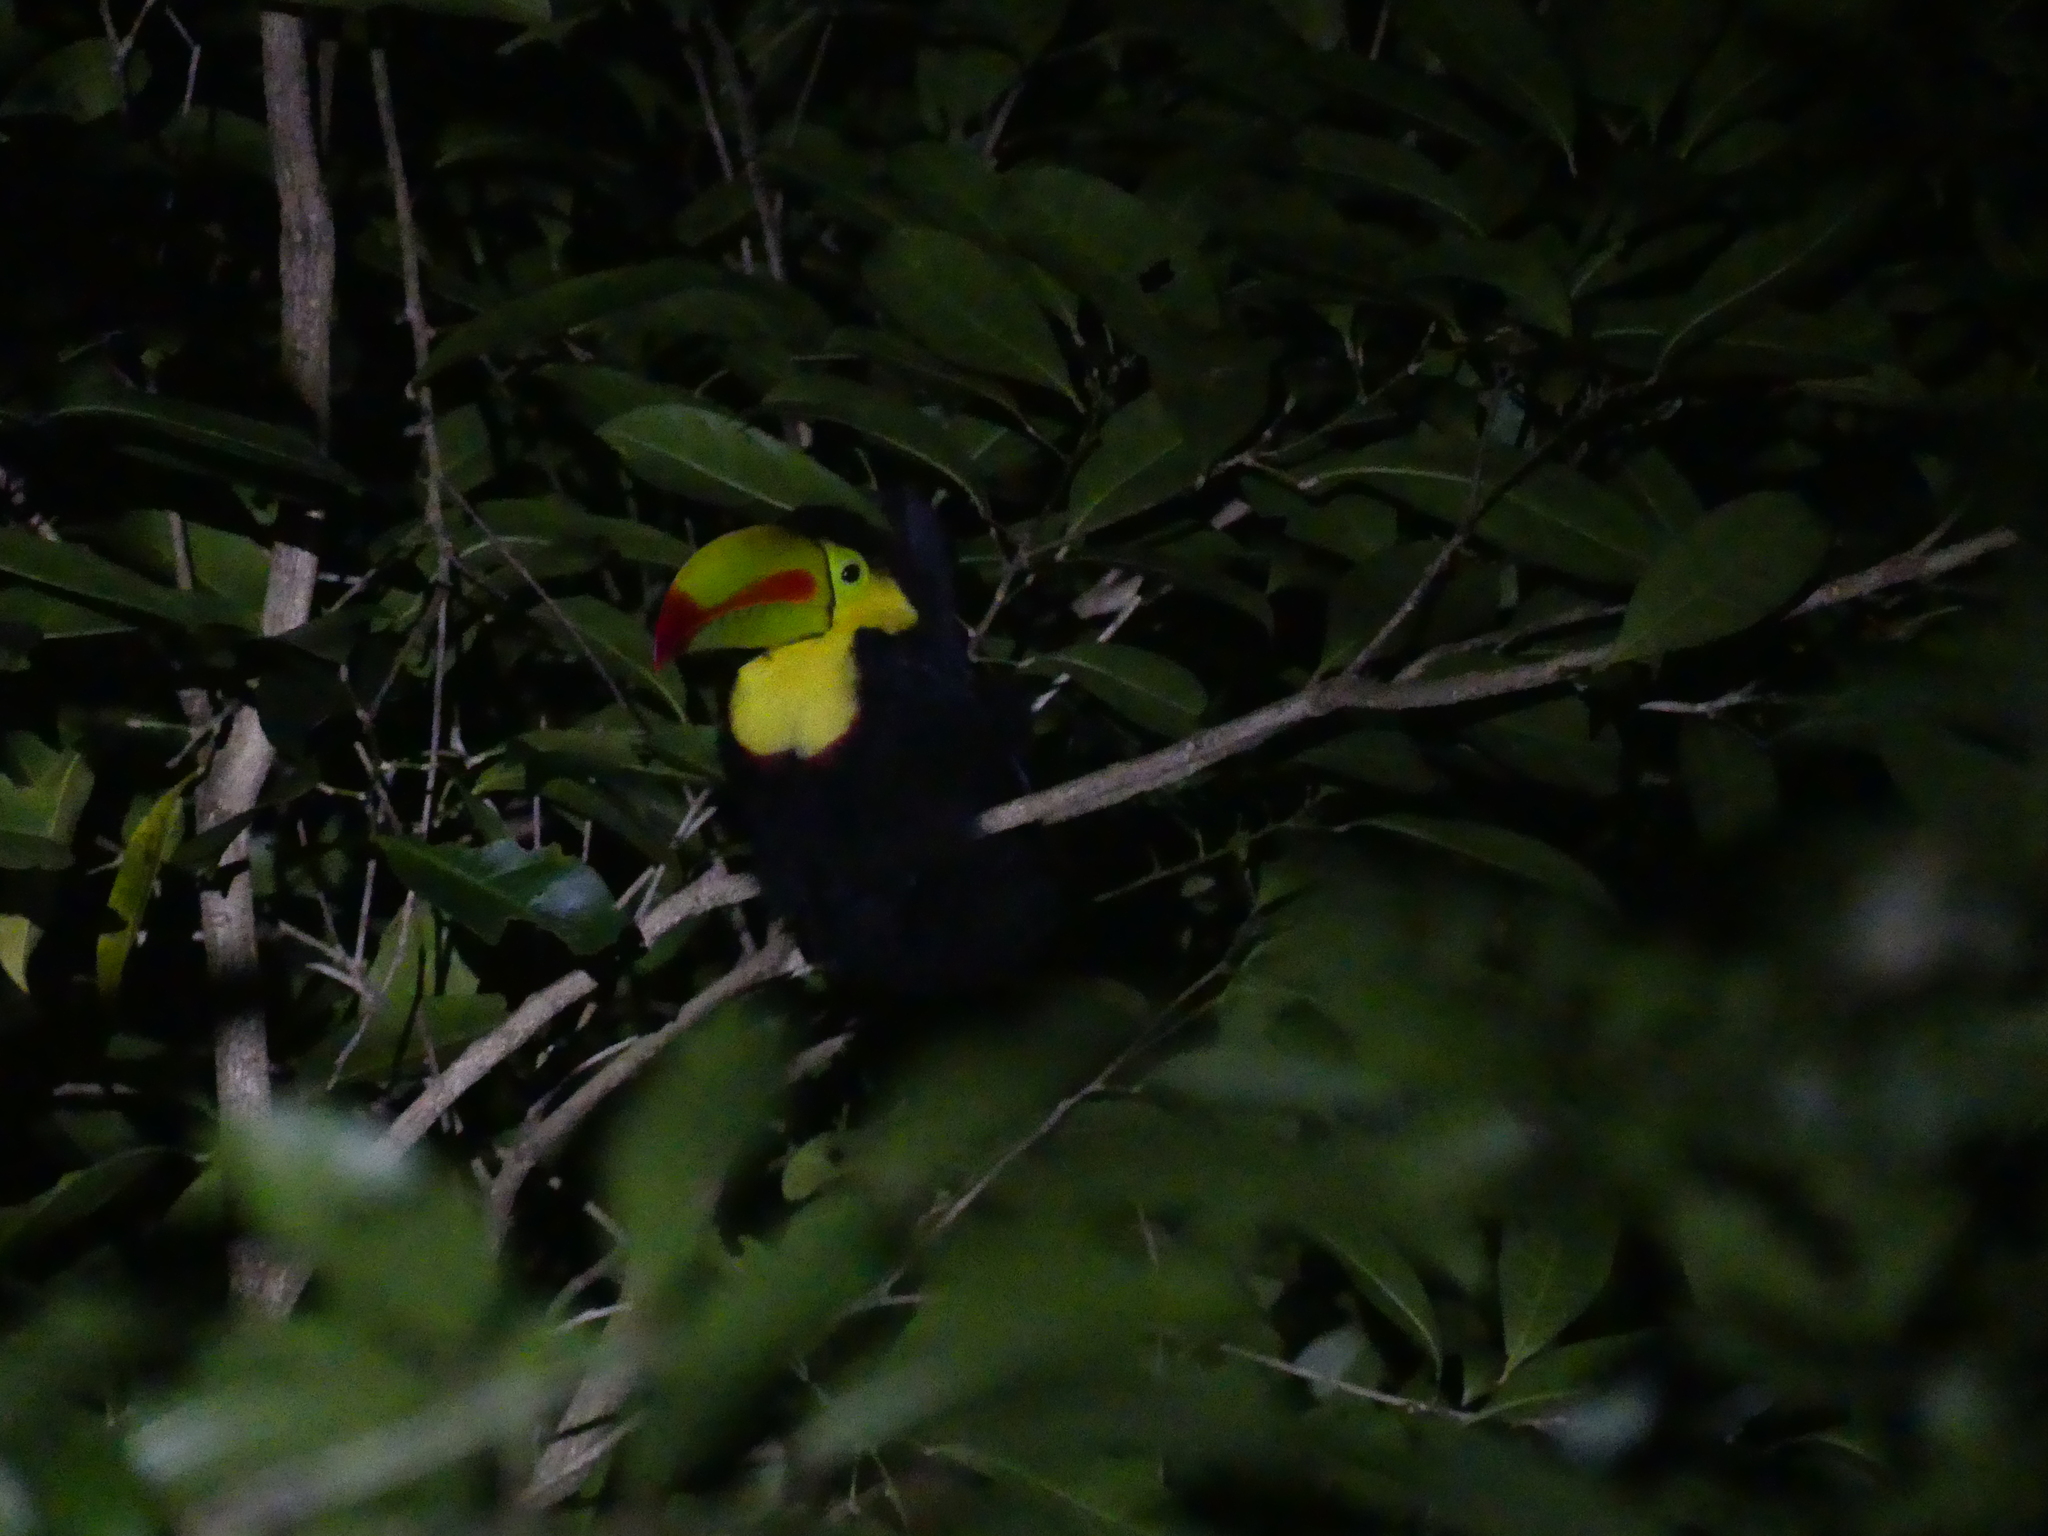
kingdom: Animalia
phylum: Chordata
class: Aves
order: Piciformes
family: Ramphastidae
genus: Ramphastos
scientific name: Ramphastos sulfuratus
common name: Keel-billed toucan
